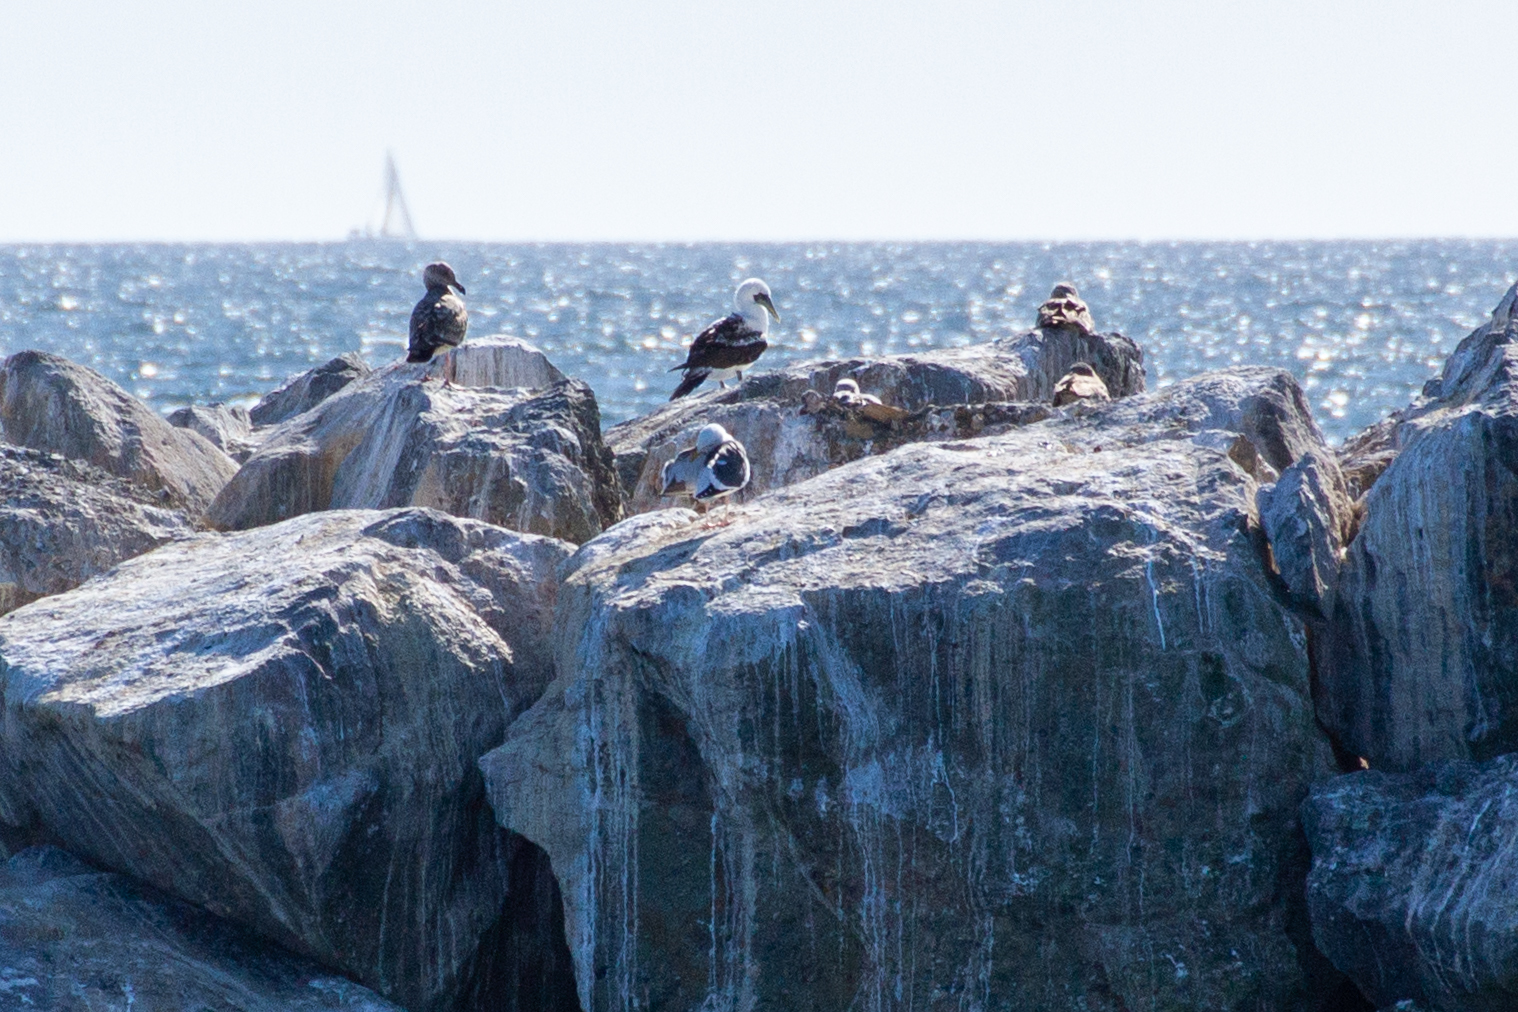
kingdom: Animalia
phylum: Chordata
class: Aves
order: Suliformes
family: Sulidae
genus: Sula
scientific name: Sula dactylatra
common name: Masked booby
